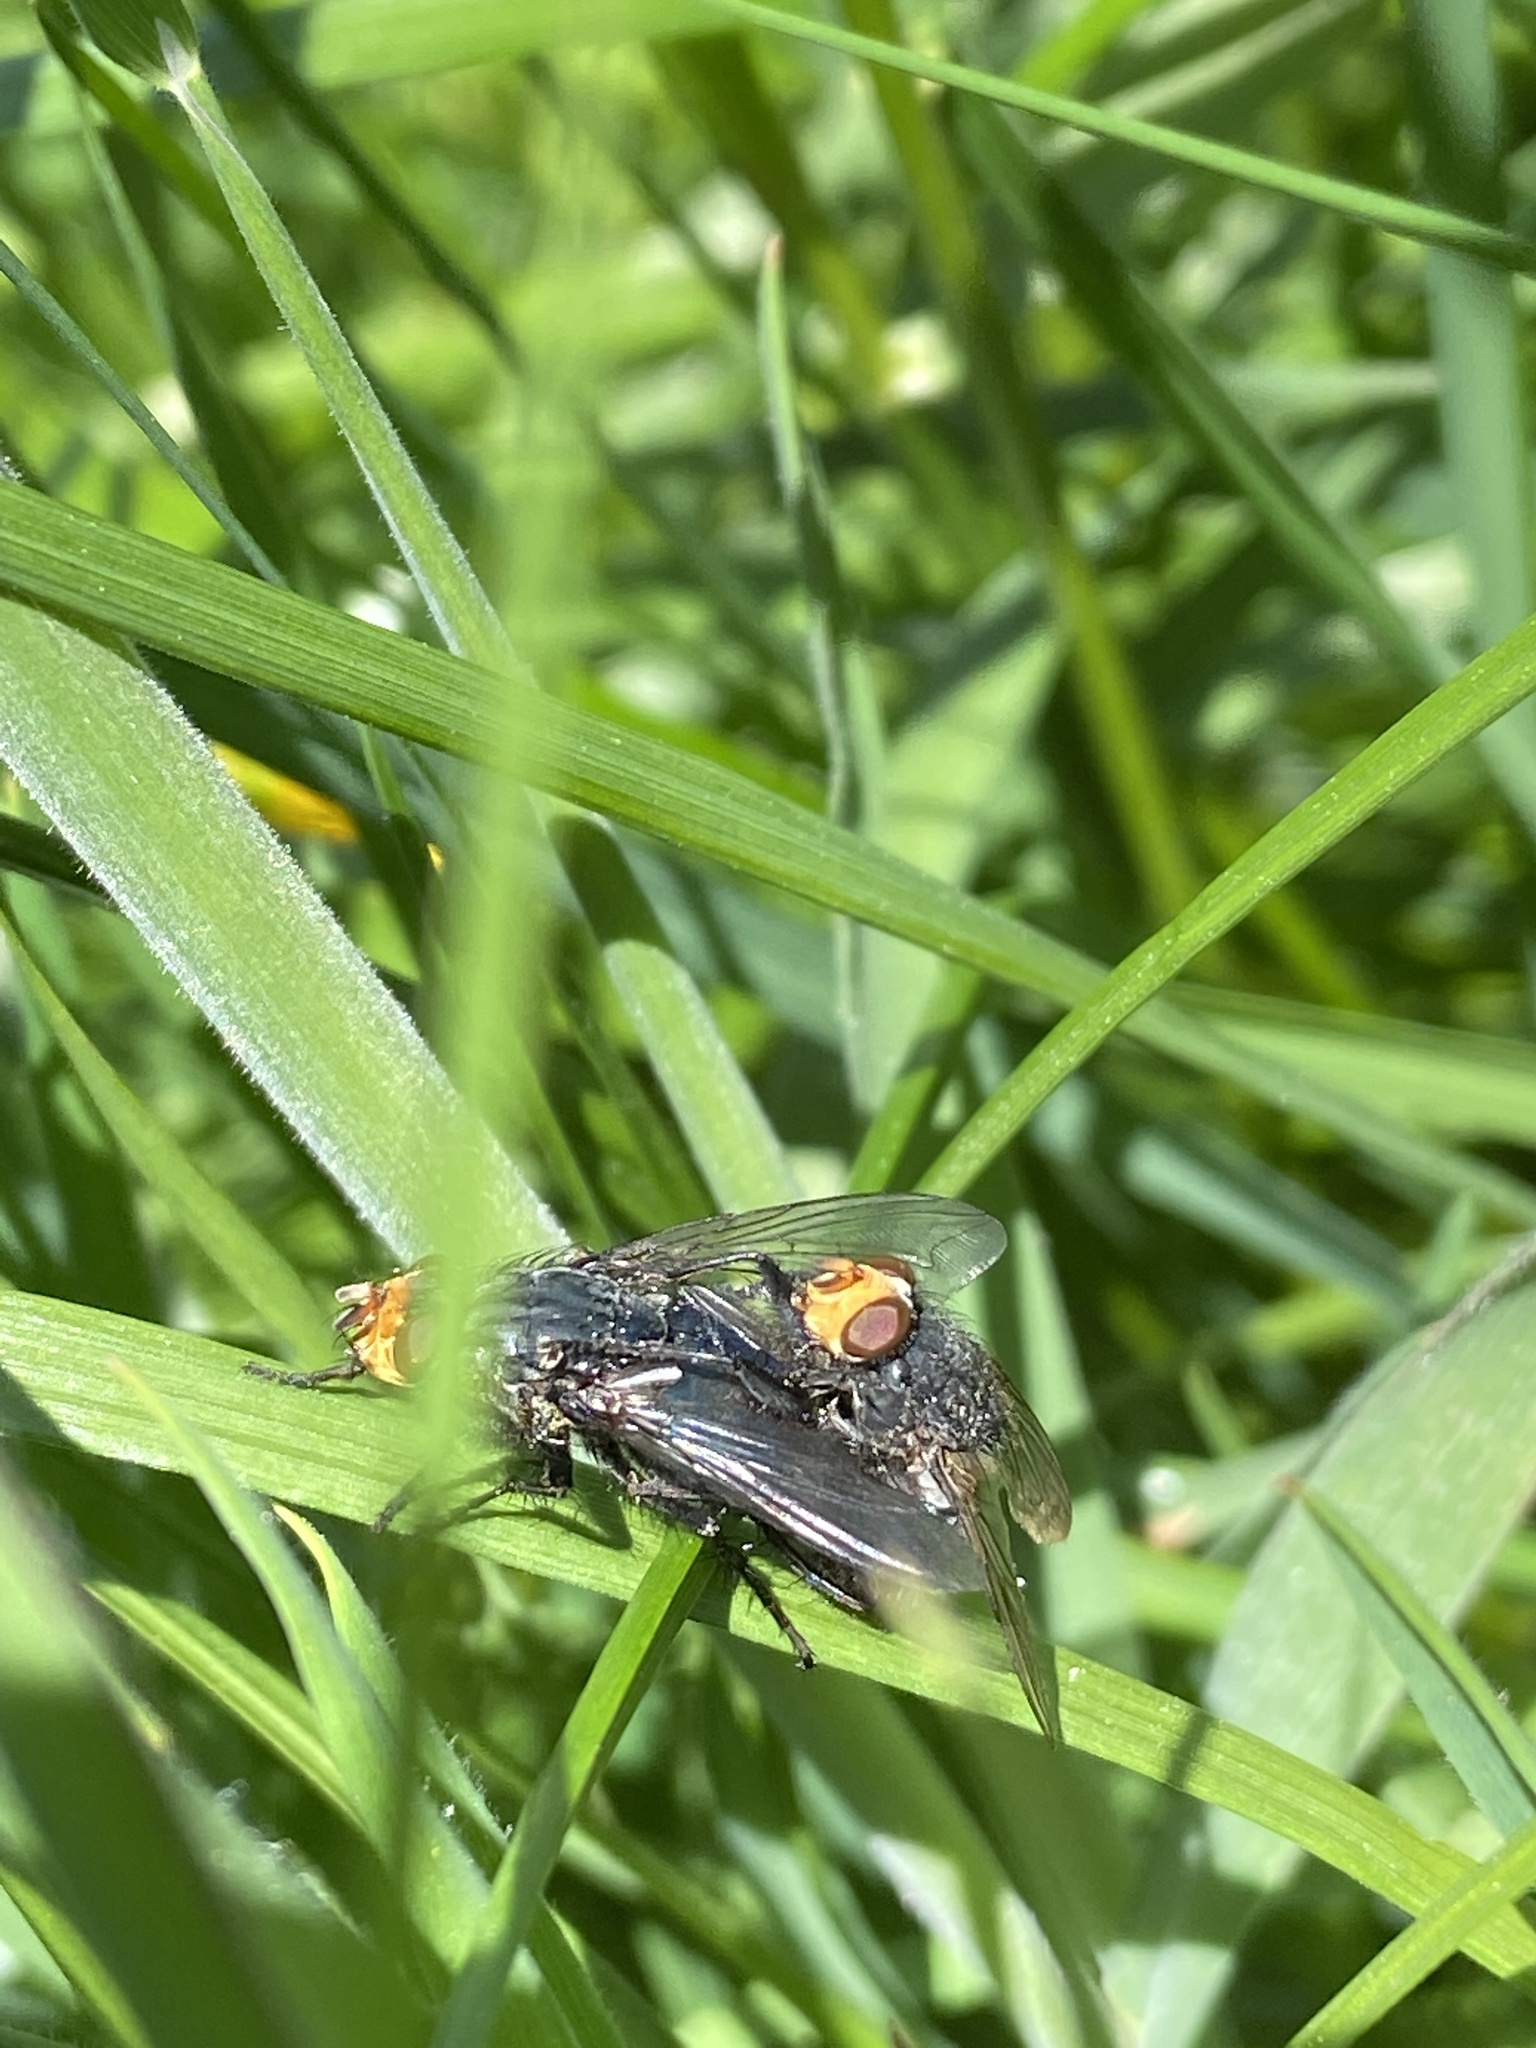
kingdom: Animalia
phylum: Arthropoda
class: Insecta
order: Diptera
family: Calliphoridae
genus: Cynomya
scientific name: Cynomya mortuorum
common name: Bluebottle blow fly
